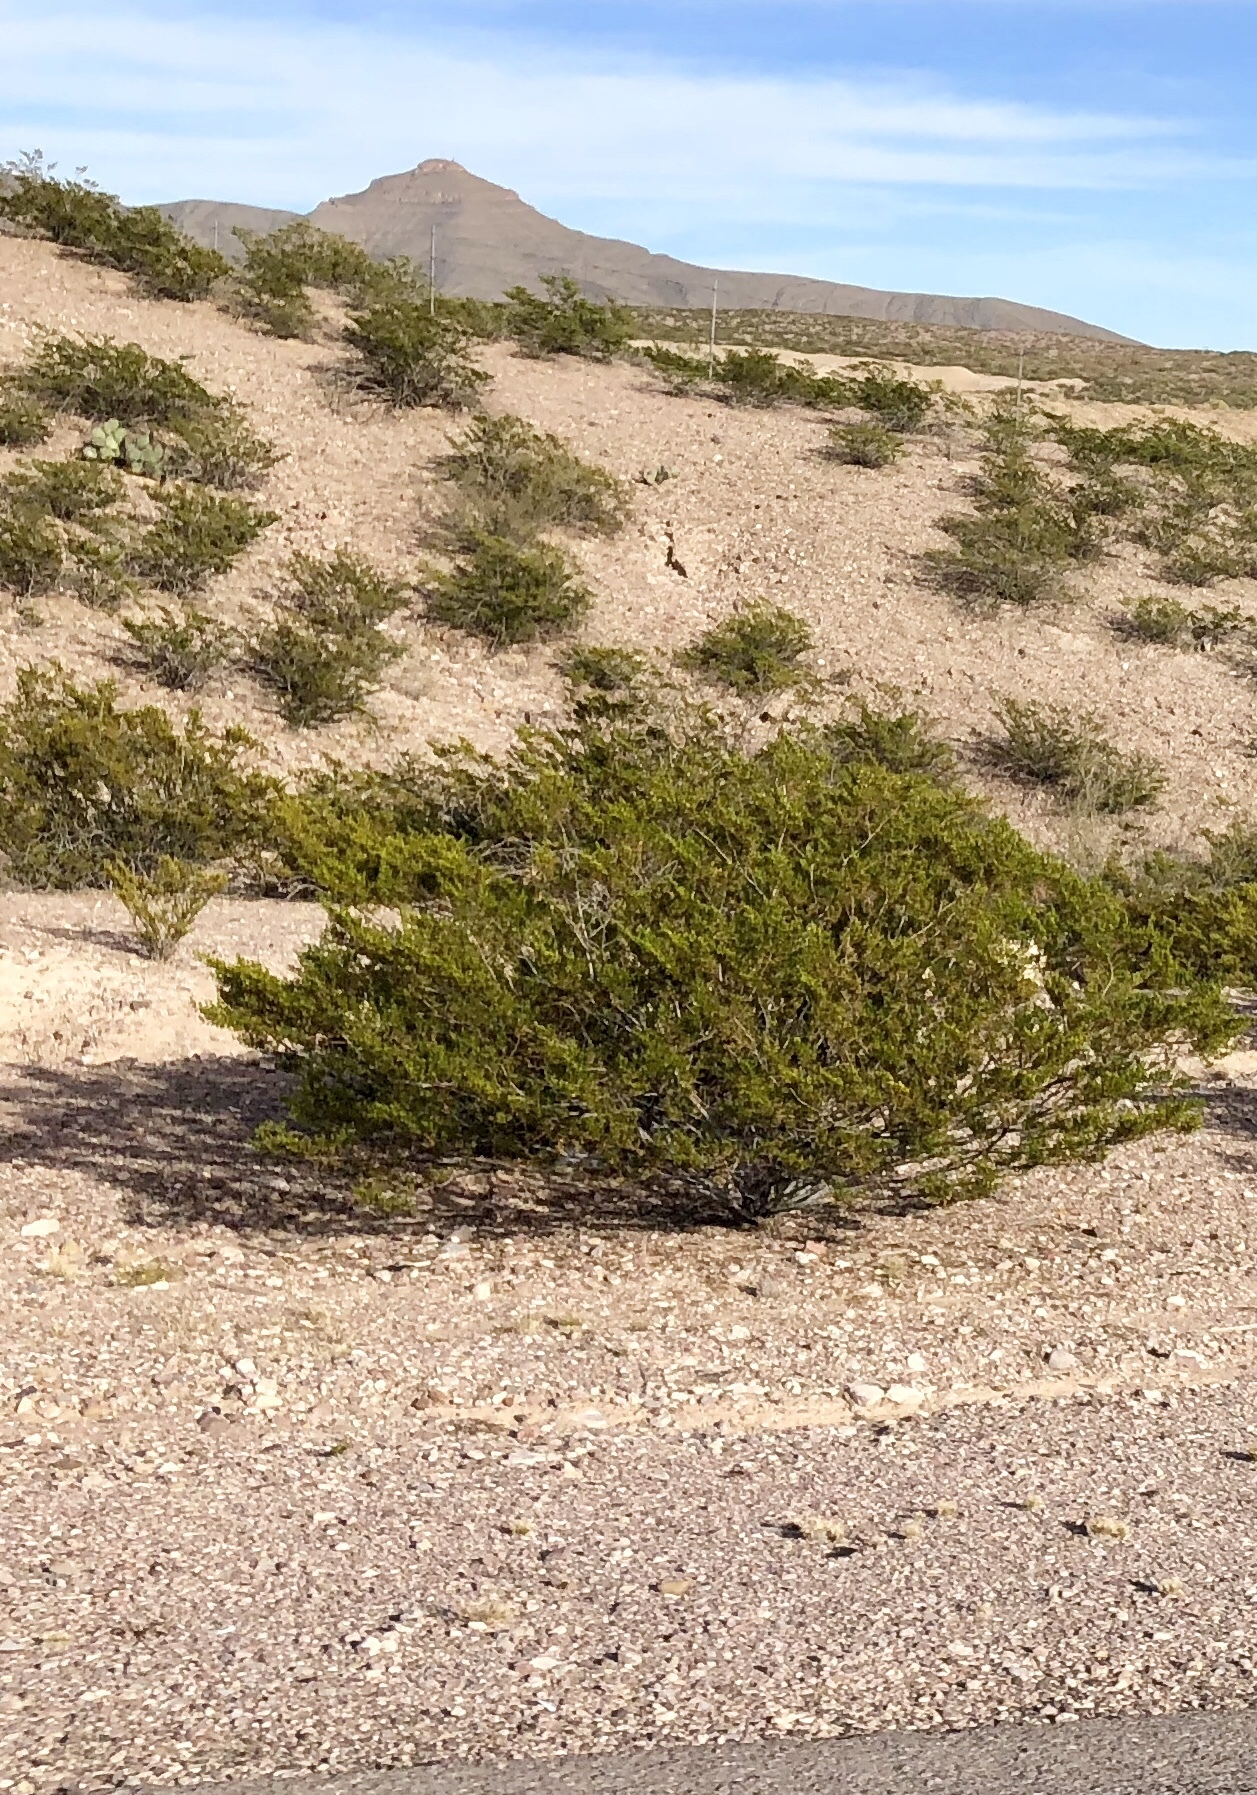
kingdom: Plantae
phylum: Tracheophyta
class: Magnoliopsida
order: Zygophyllales
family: Zygophyllaceae
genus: Larrea
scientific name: Larrea tridentata
